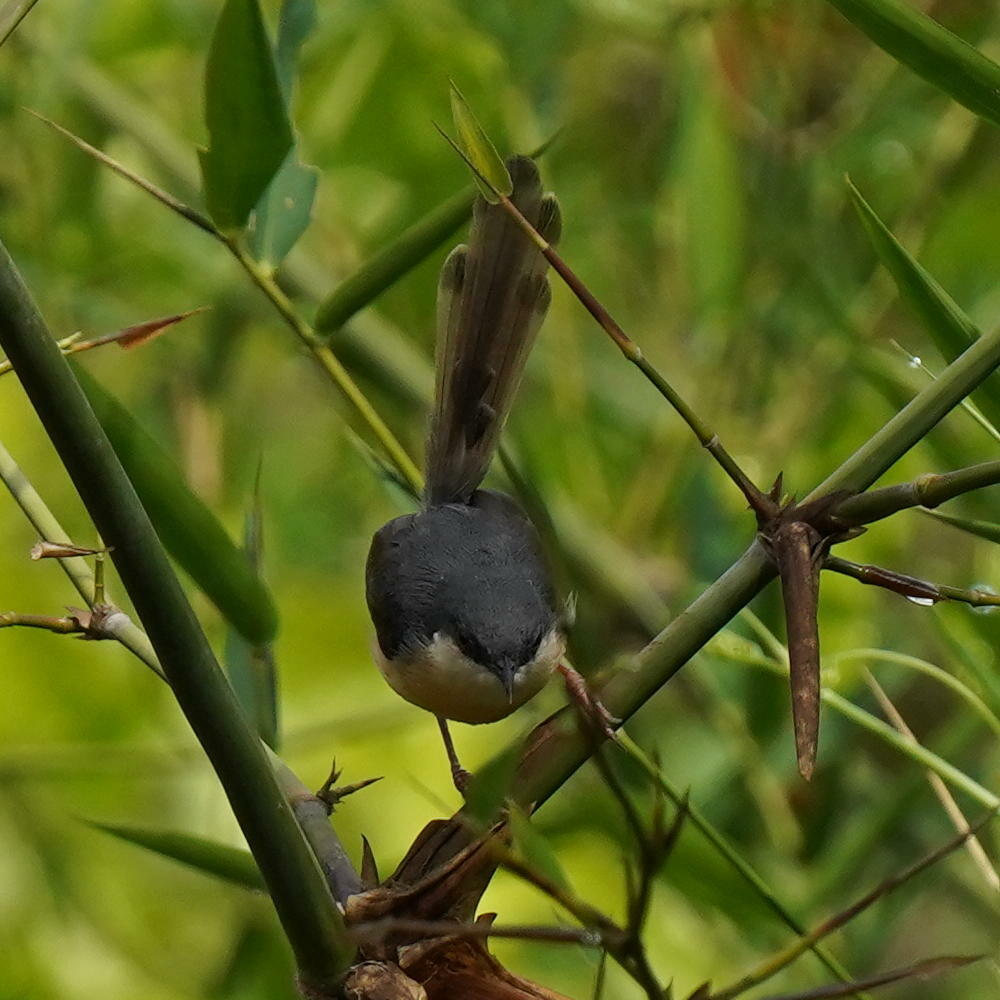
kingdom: Animalia
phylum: Chordata
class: Aves
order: Passeriformes
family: Cisticolidae
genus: Prinia
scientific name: Prinia socialis
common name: Ashy prinia
